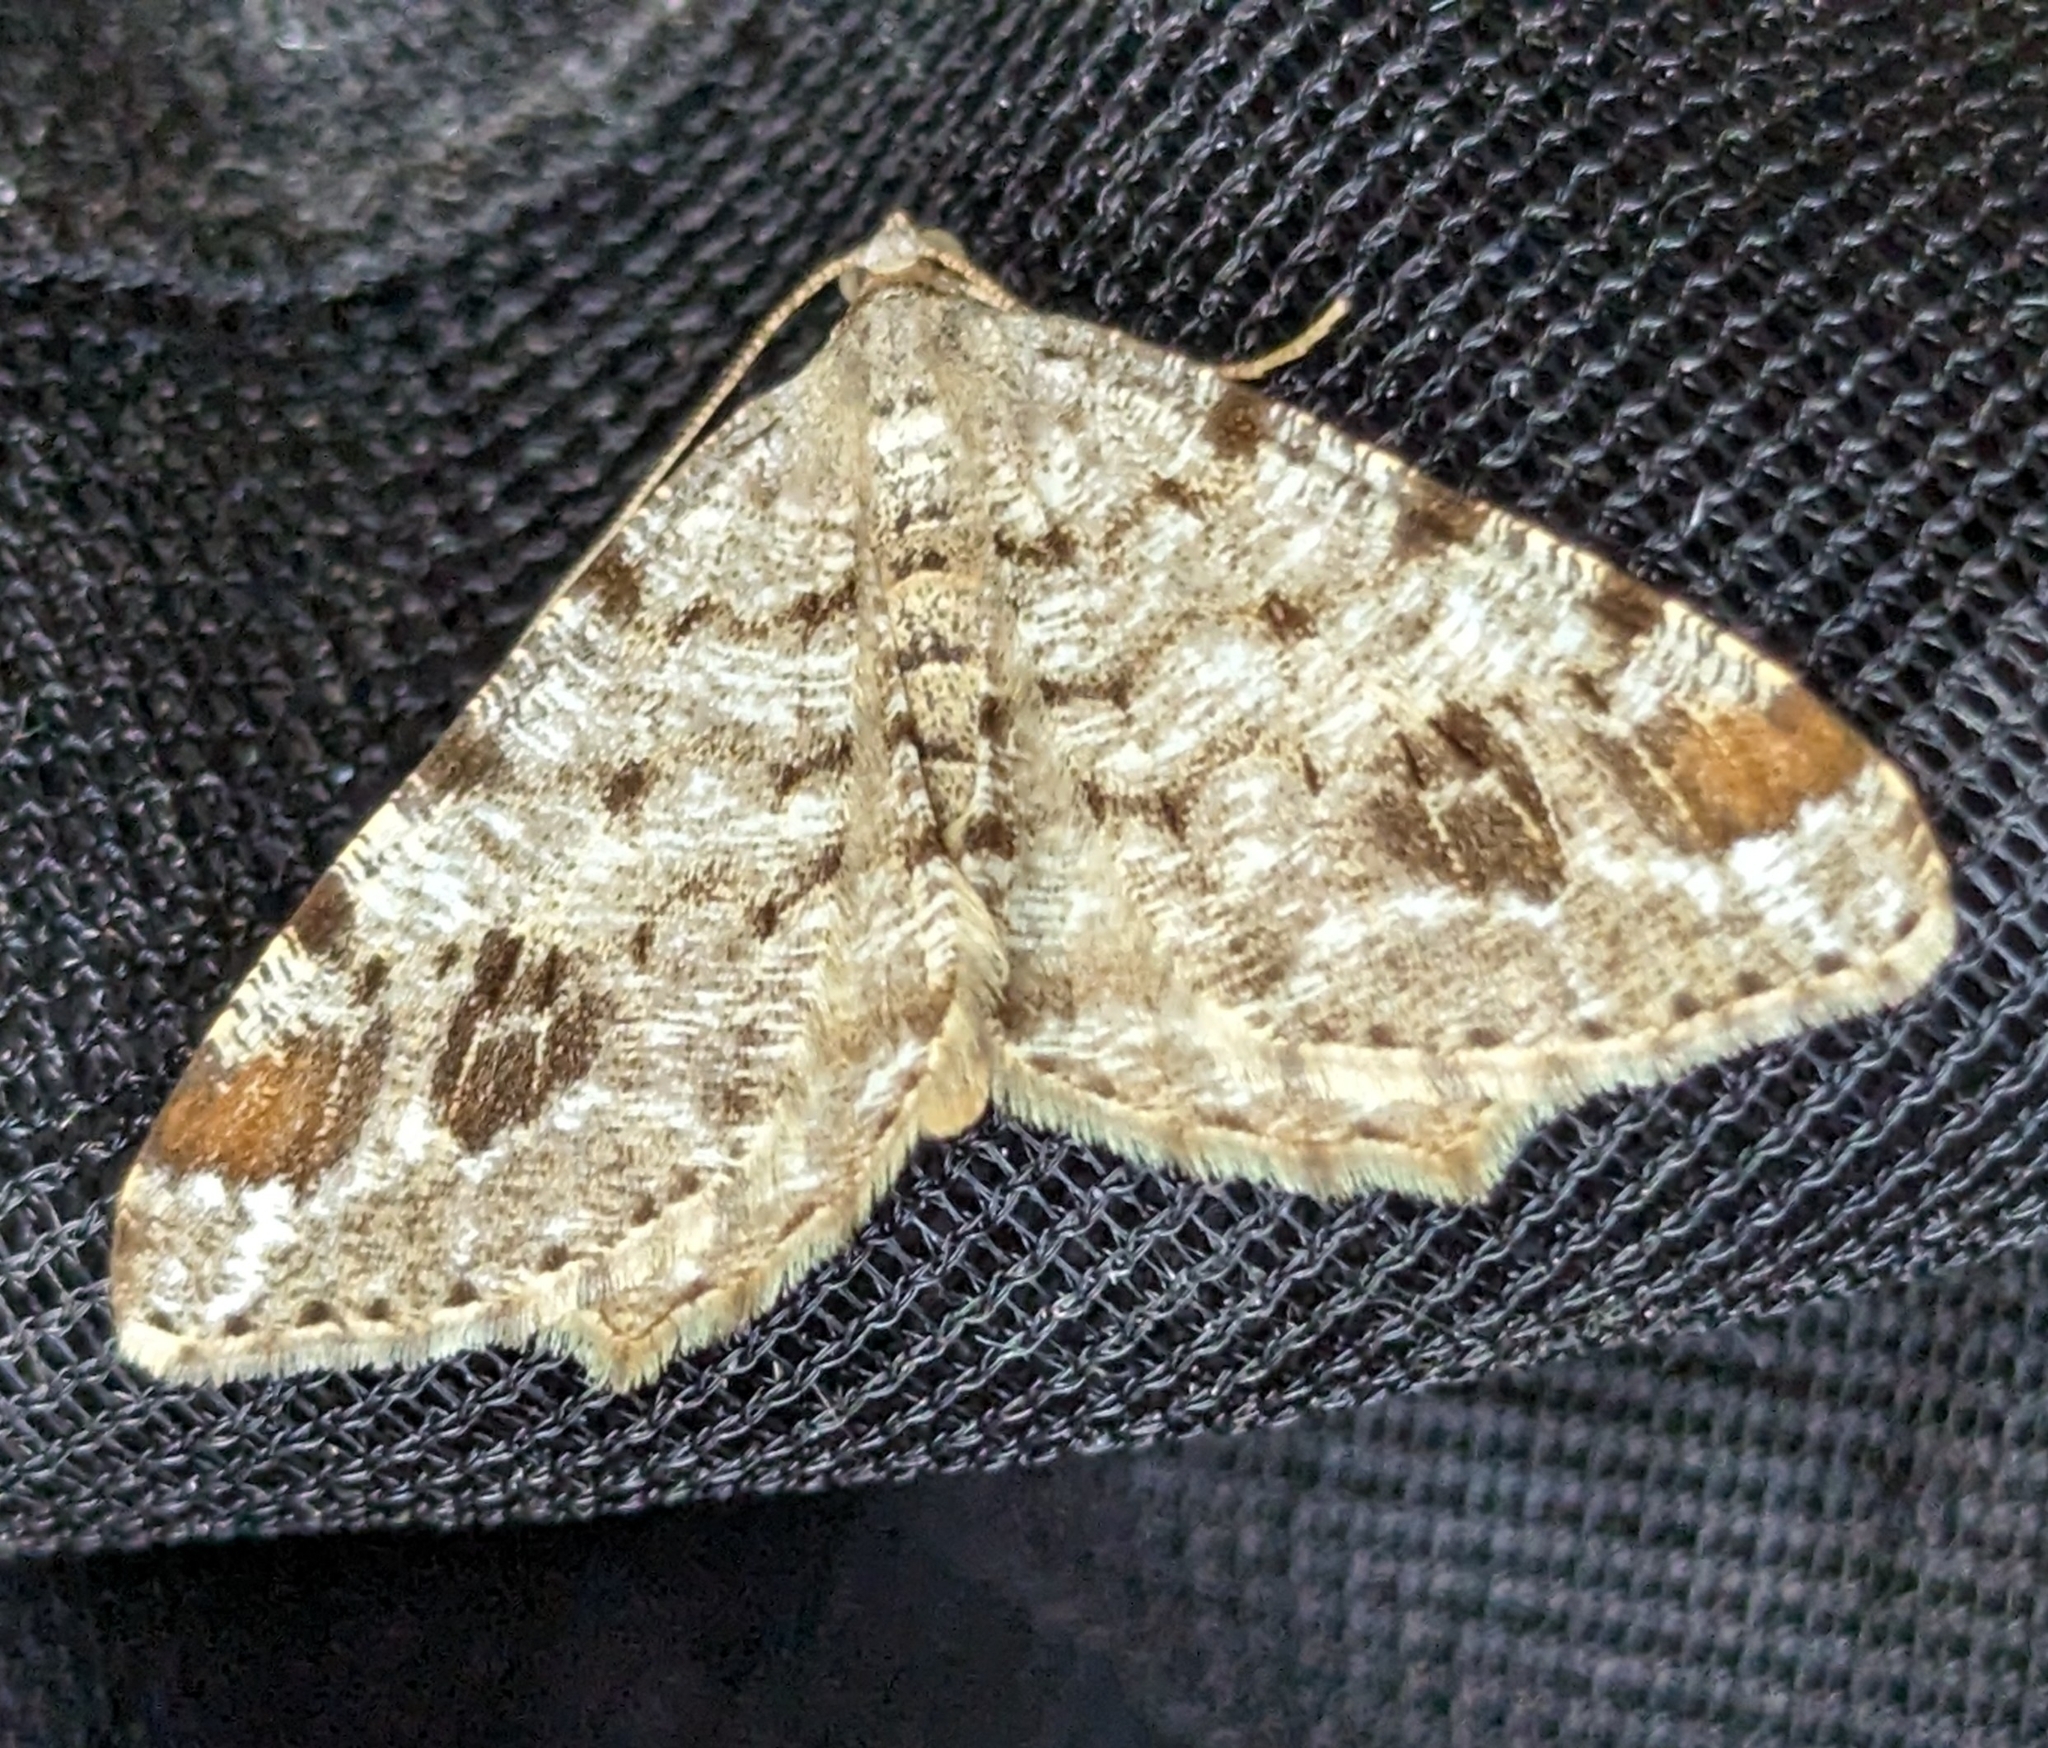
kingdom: Animalia
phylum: Arthropoda
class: Insecta
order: Lepidoptera
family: Geometridae
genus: Macaria
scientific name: Macaria signaria
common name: Dusky peacock
